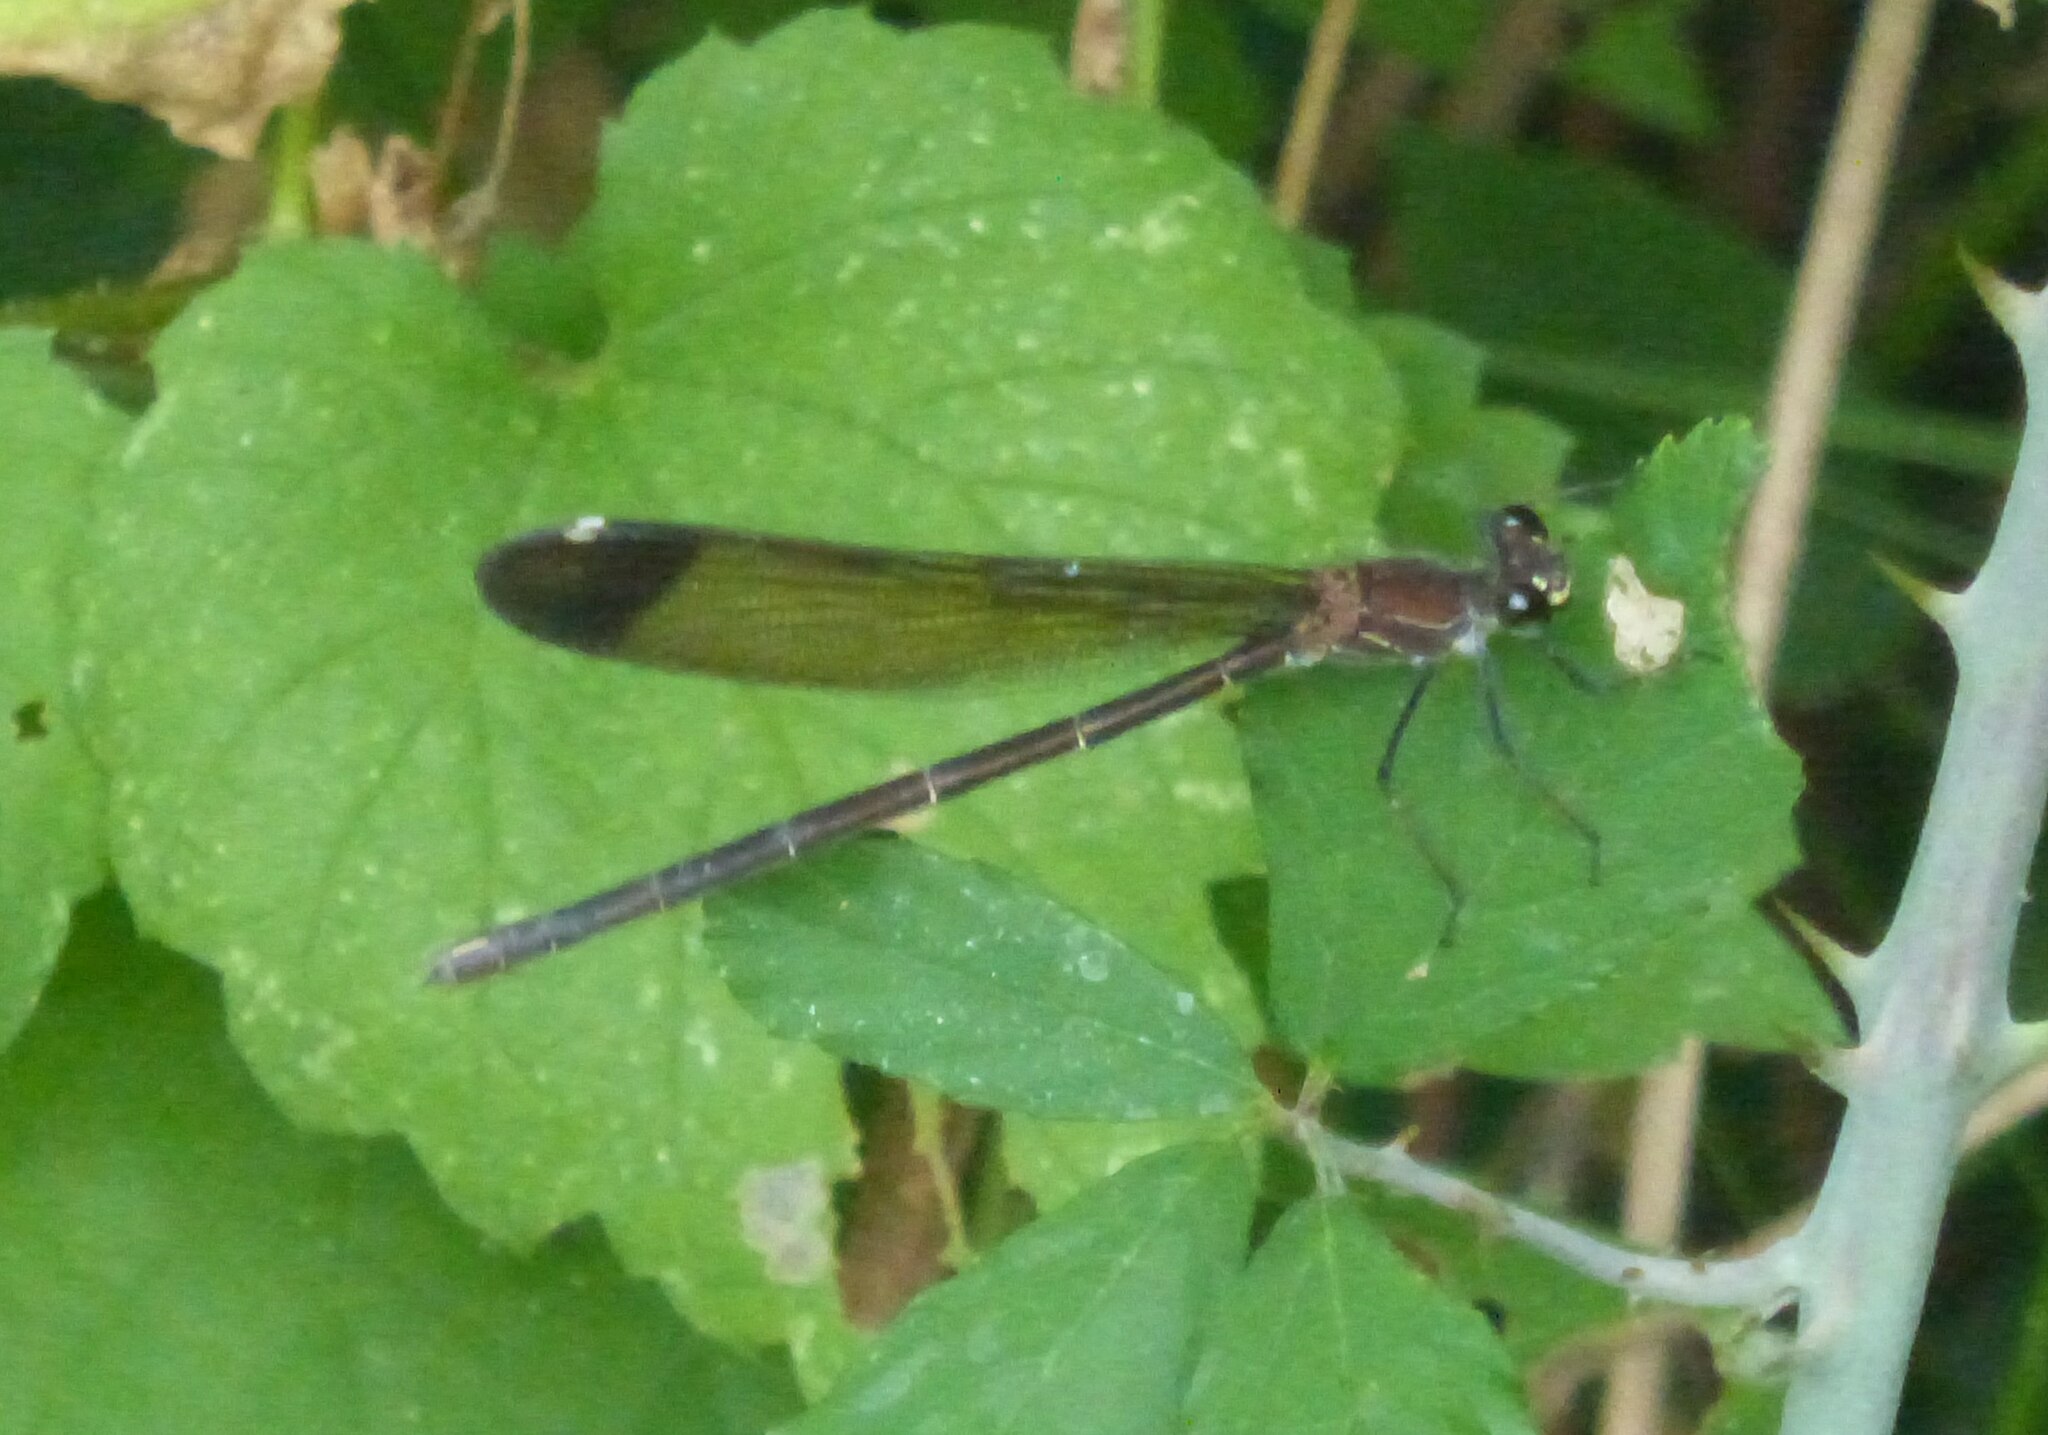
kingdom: Animalia
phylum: Arthropoda
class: Insecta
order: Odonata
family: Calopterygidae
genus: Calopteryx
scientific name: Calopteryx haemorrhoidalis
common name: Copper demoiselle
